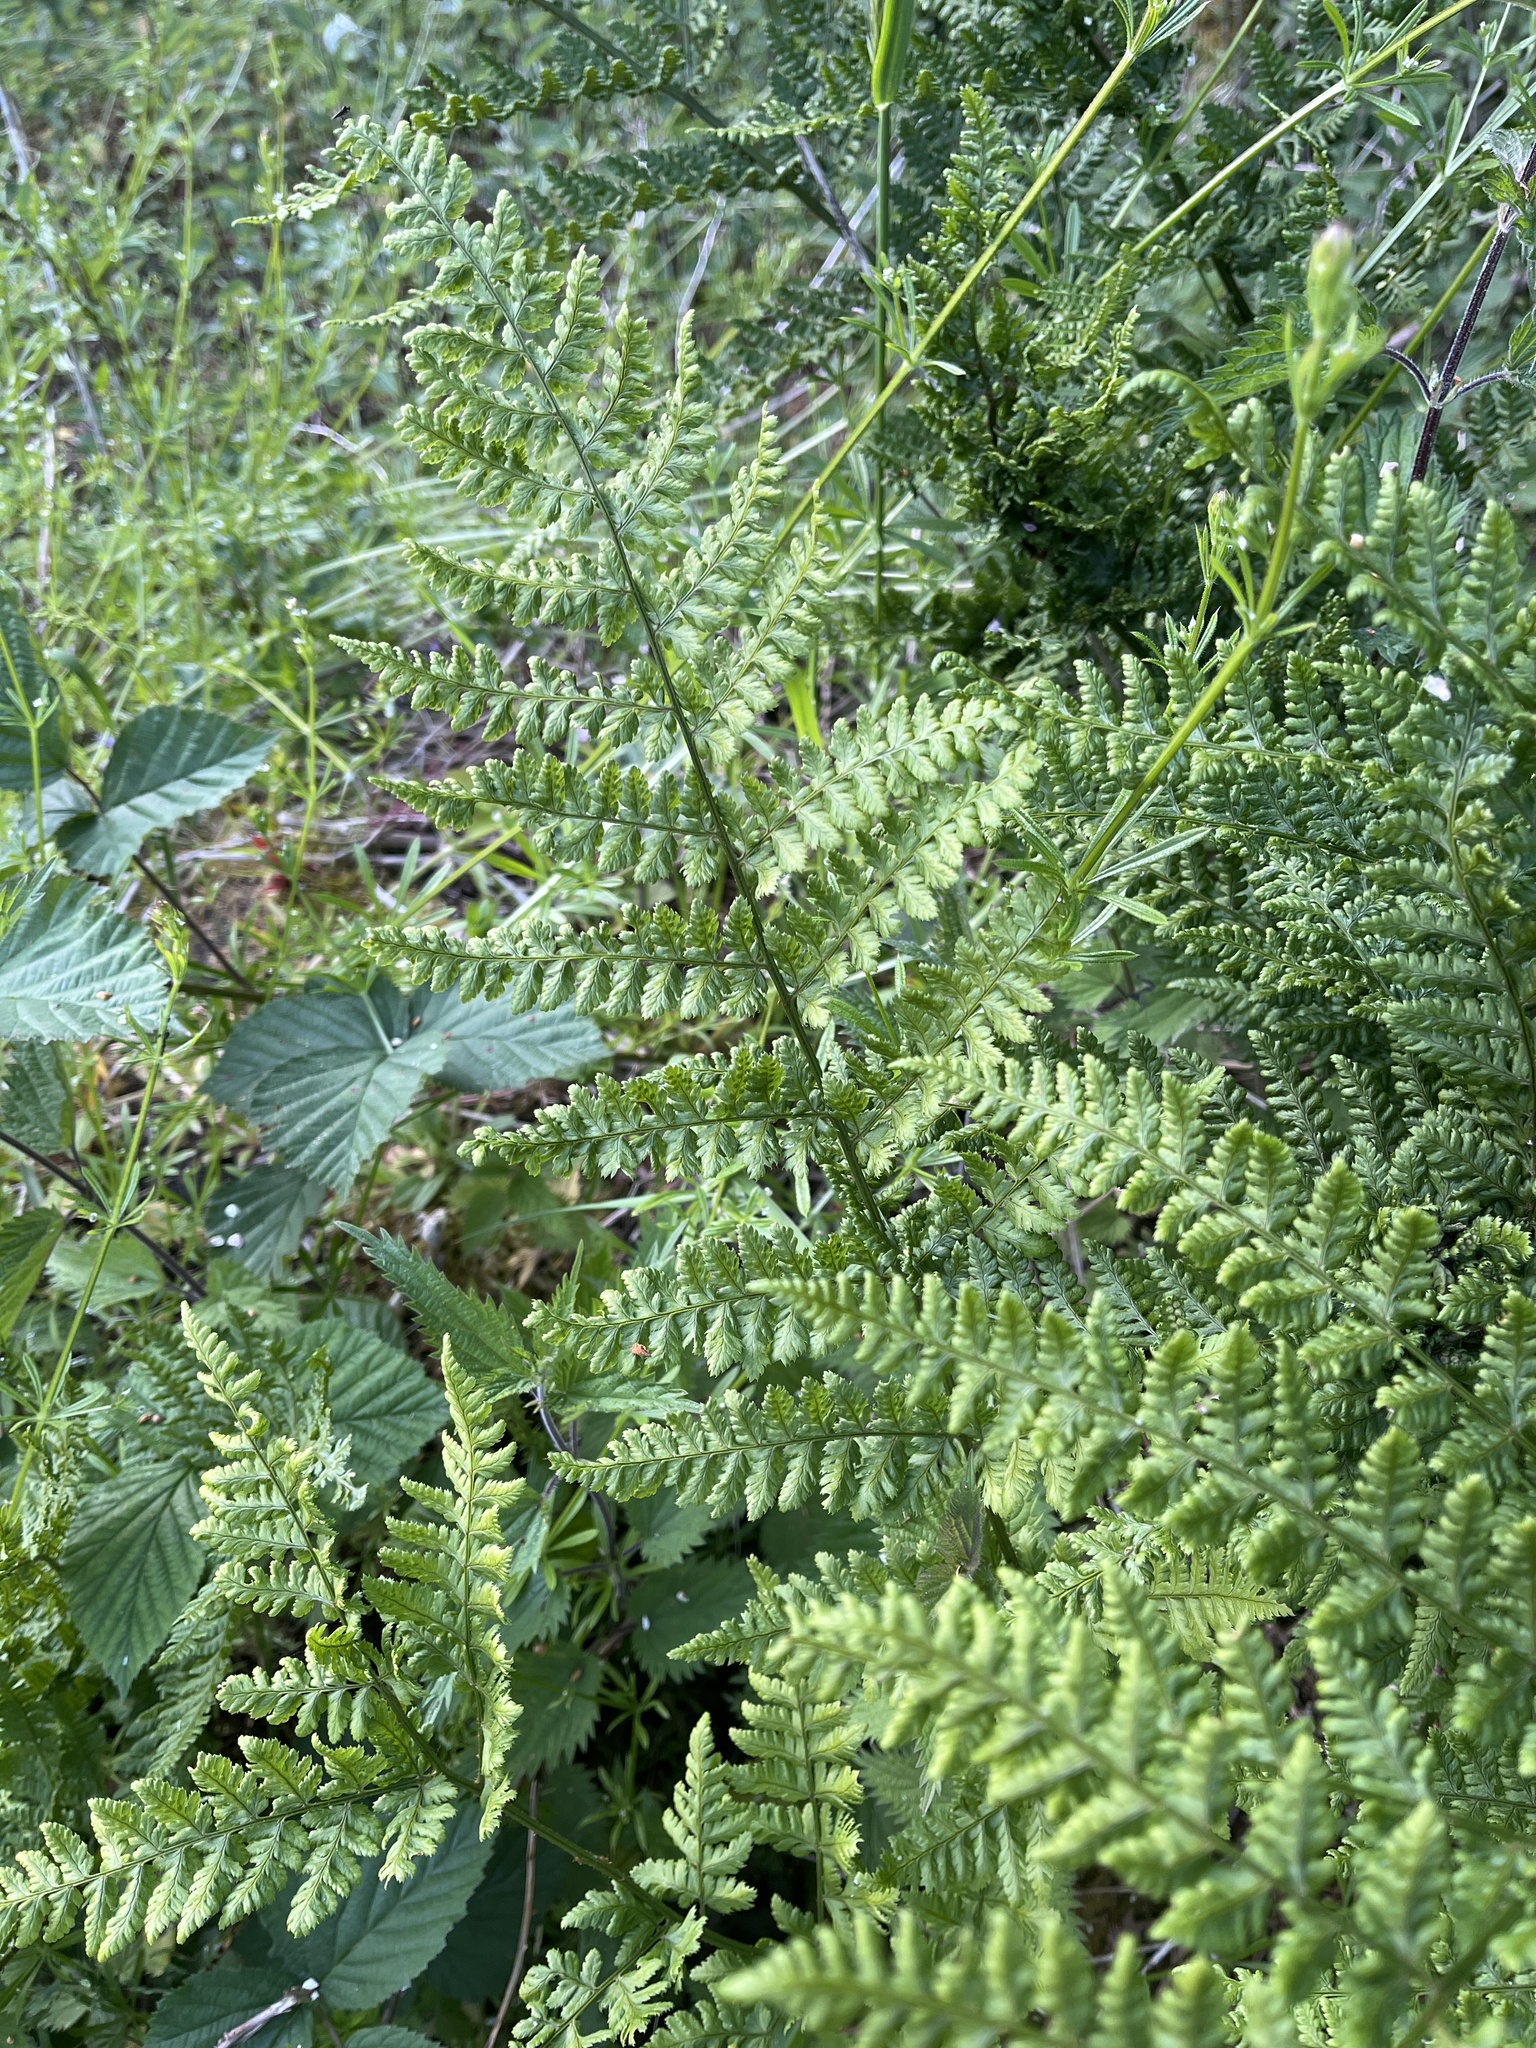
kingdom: Plantae
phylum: Tracheophyta
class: Polypodiopsida
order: Polypodiales
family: Dryopteridaceae
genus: Dryopteris
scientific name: Dryopteris dilatata
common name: Broad buckler-fern
